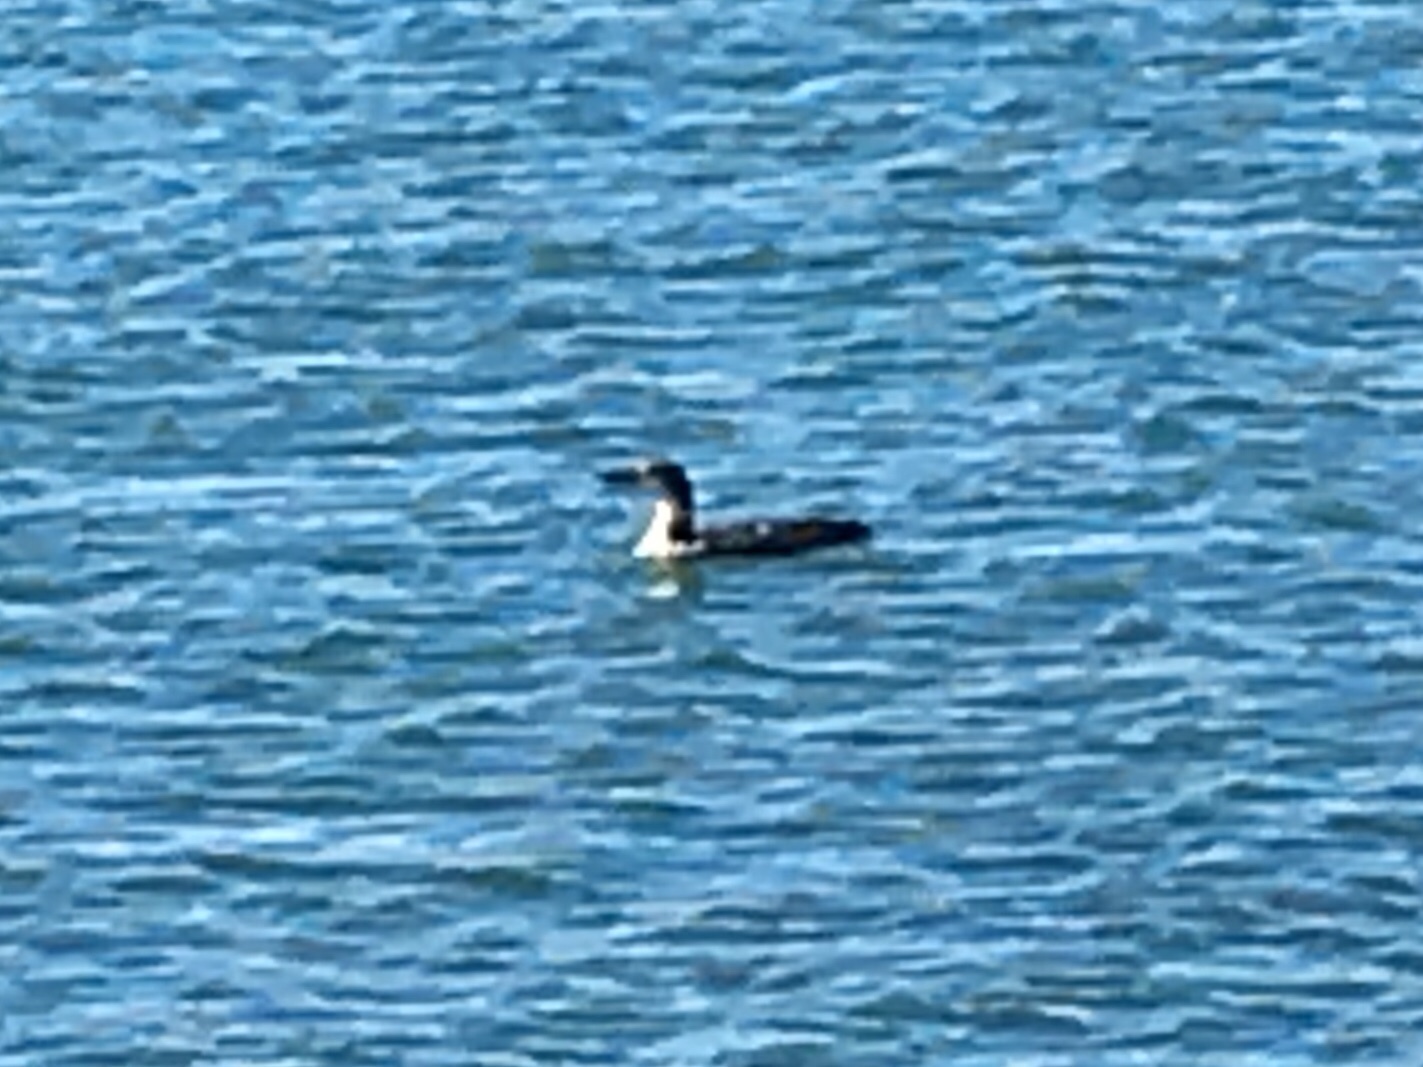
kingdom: Animalia
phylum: Chordata
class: Aves
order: Gaviiformes
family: Gaviidae
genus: Gavia
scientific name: Gavia immer
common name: Common loon
